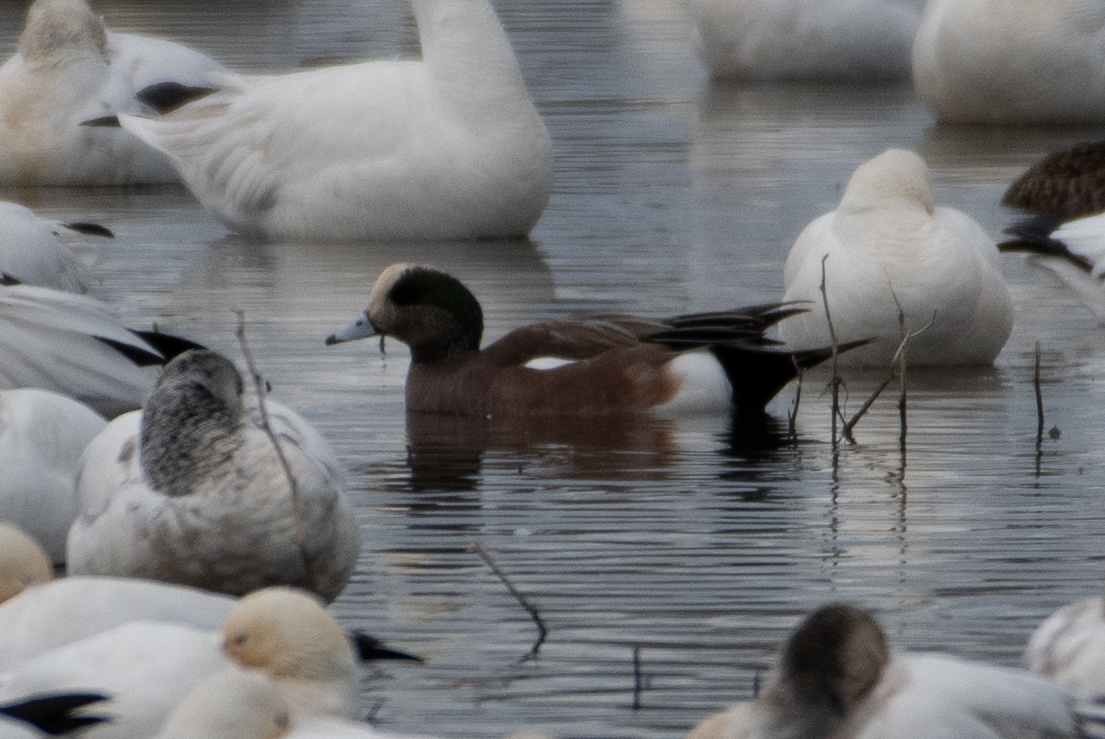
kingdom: Animalia
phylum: Chordata
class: Aves
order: Anseriformes
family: Anatidae
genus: Mareca
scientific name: Mareca americana
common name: American wigeon
